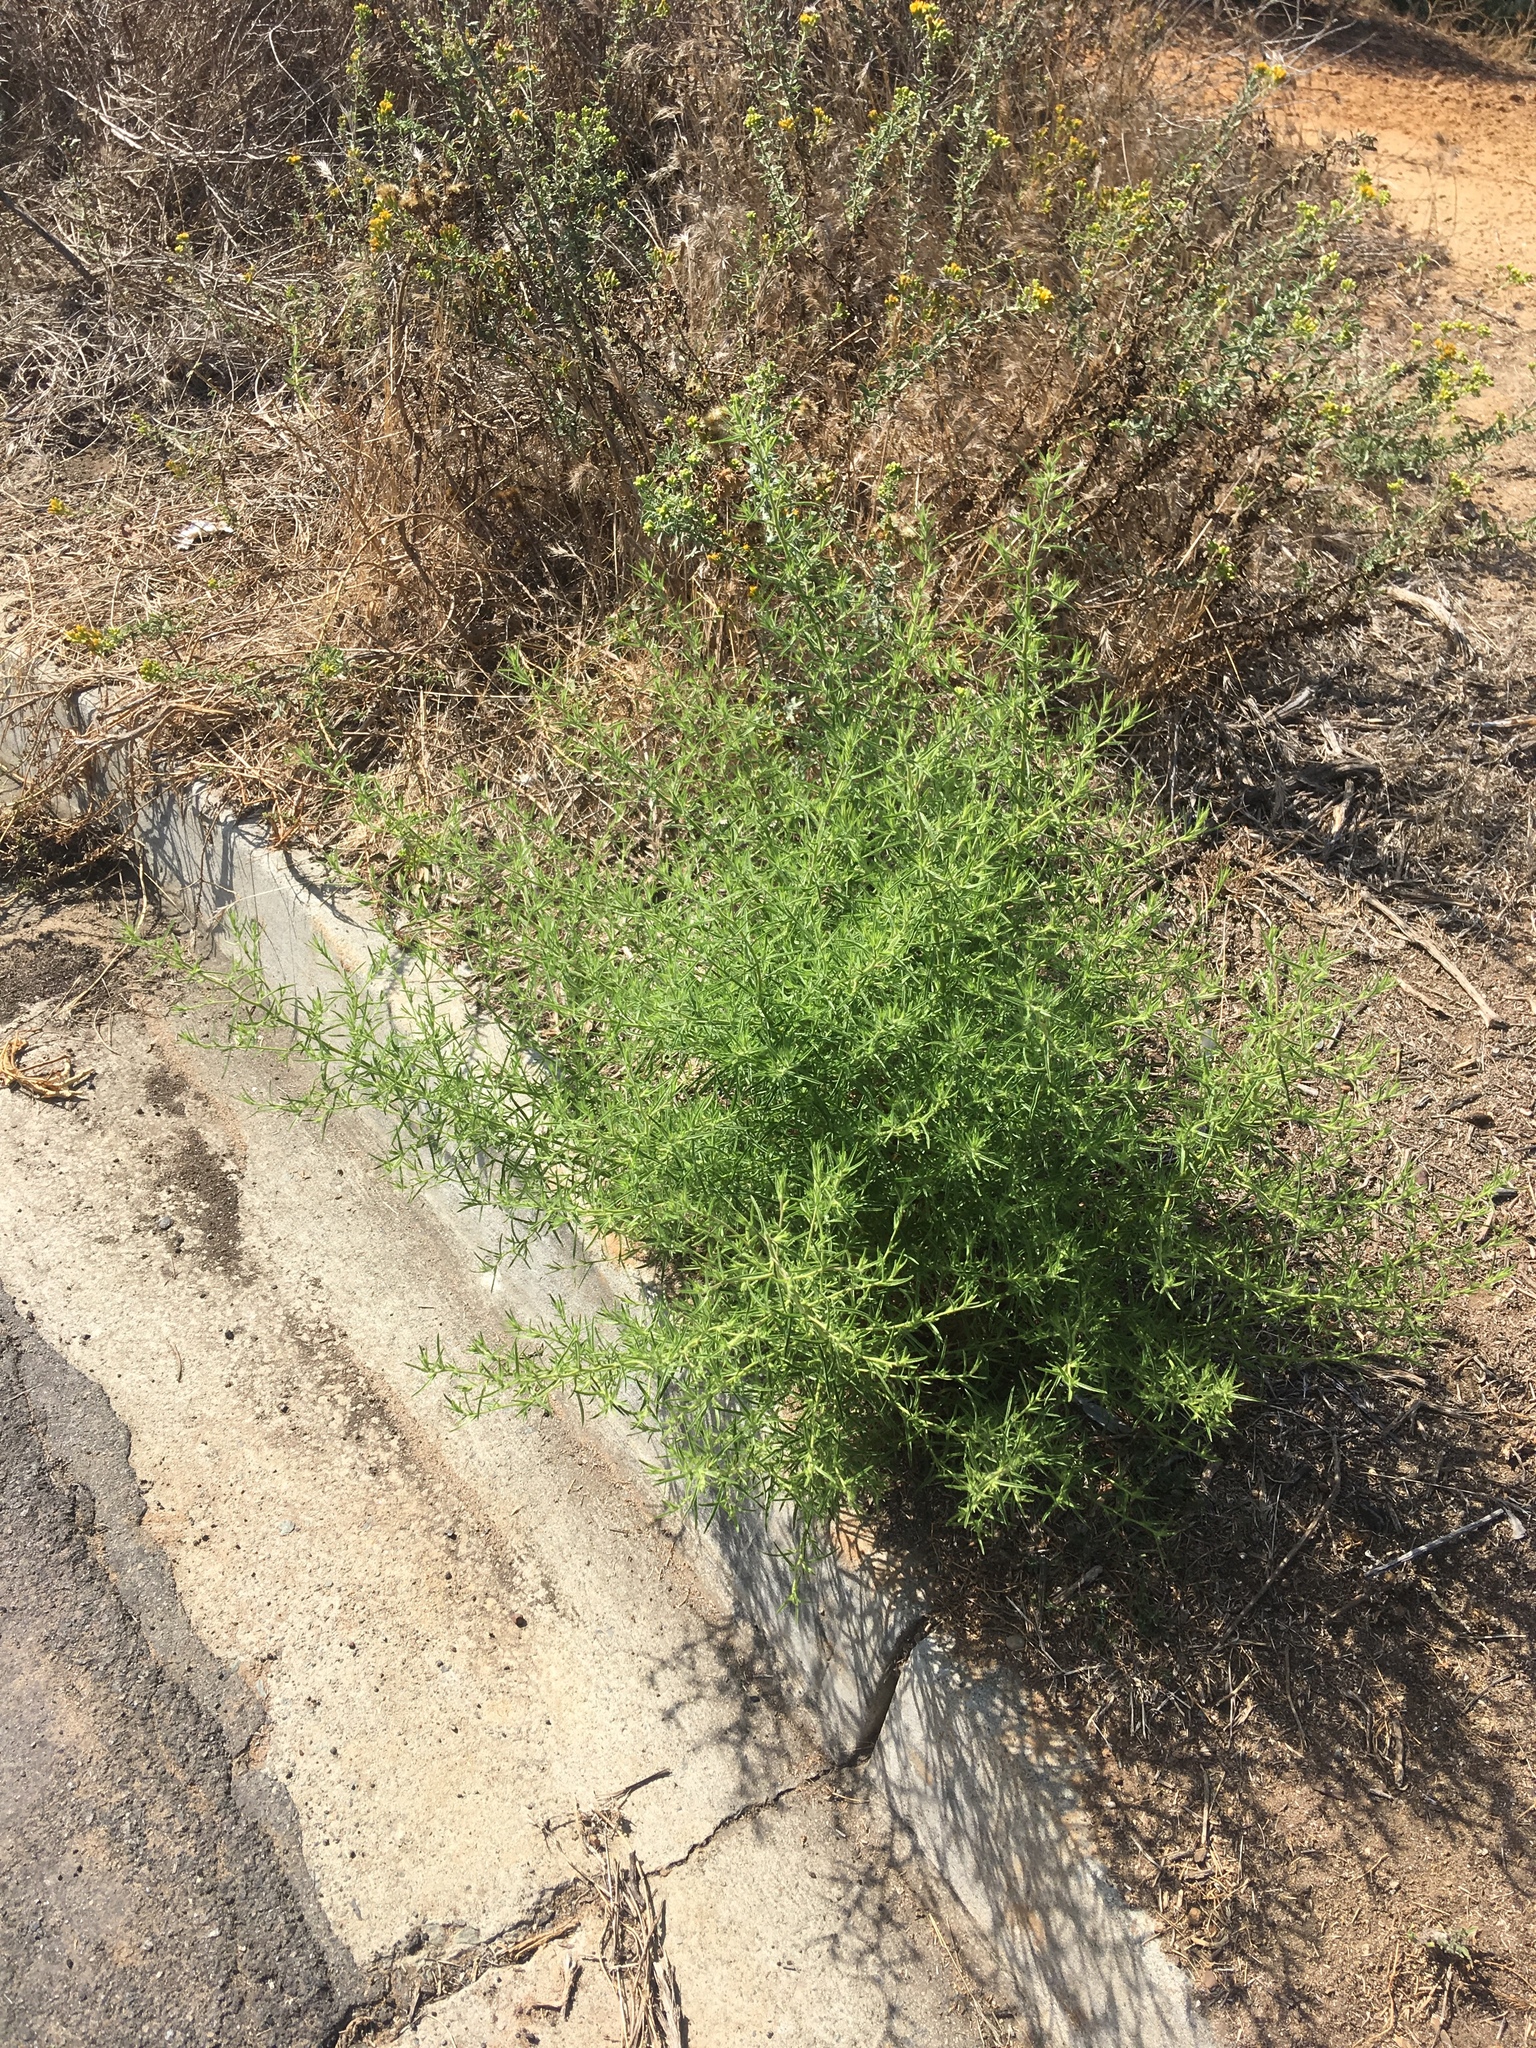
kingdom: Plantae
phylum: Tracheophyta
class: Magnoliopsida
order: Asterales
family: Asteraceae
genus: Dittrichia
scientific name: Dittrichia graveolens
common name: Stinking fleabane
